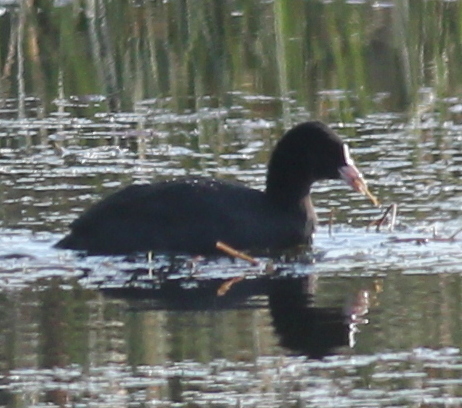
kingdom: Animalia
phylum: Chordata
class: Aves
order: Gruiformes
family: Rallidae
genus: Fulica
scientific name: Fulica atra
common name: Eurasian coot
